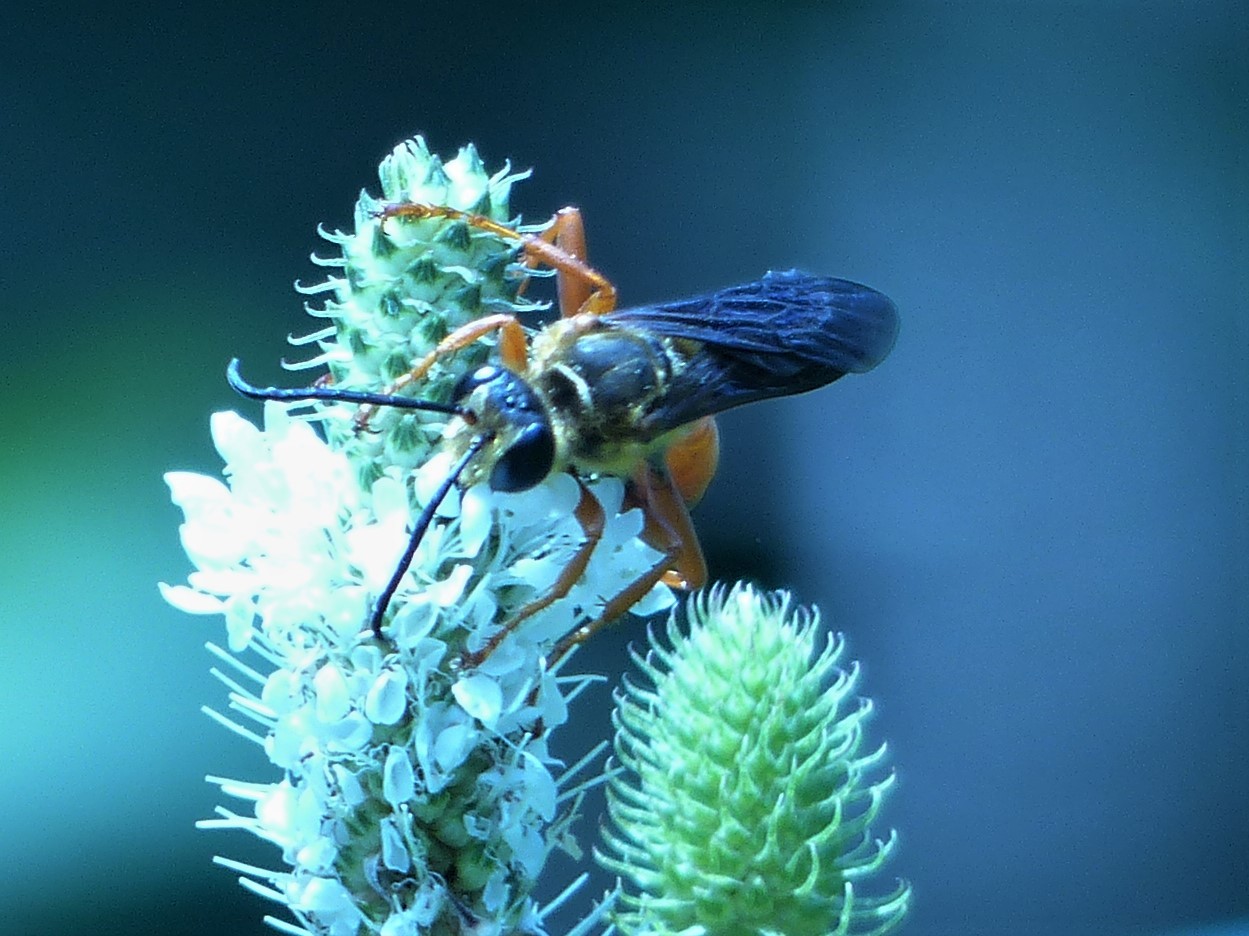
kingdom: Animalia
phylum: Arthropoda
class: Insecta
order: Hymenoptera
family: Sphecidae
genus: Sphex
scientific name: Sphex ichneumoneus
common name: Great golden digger wasp
